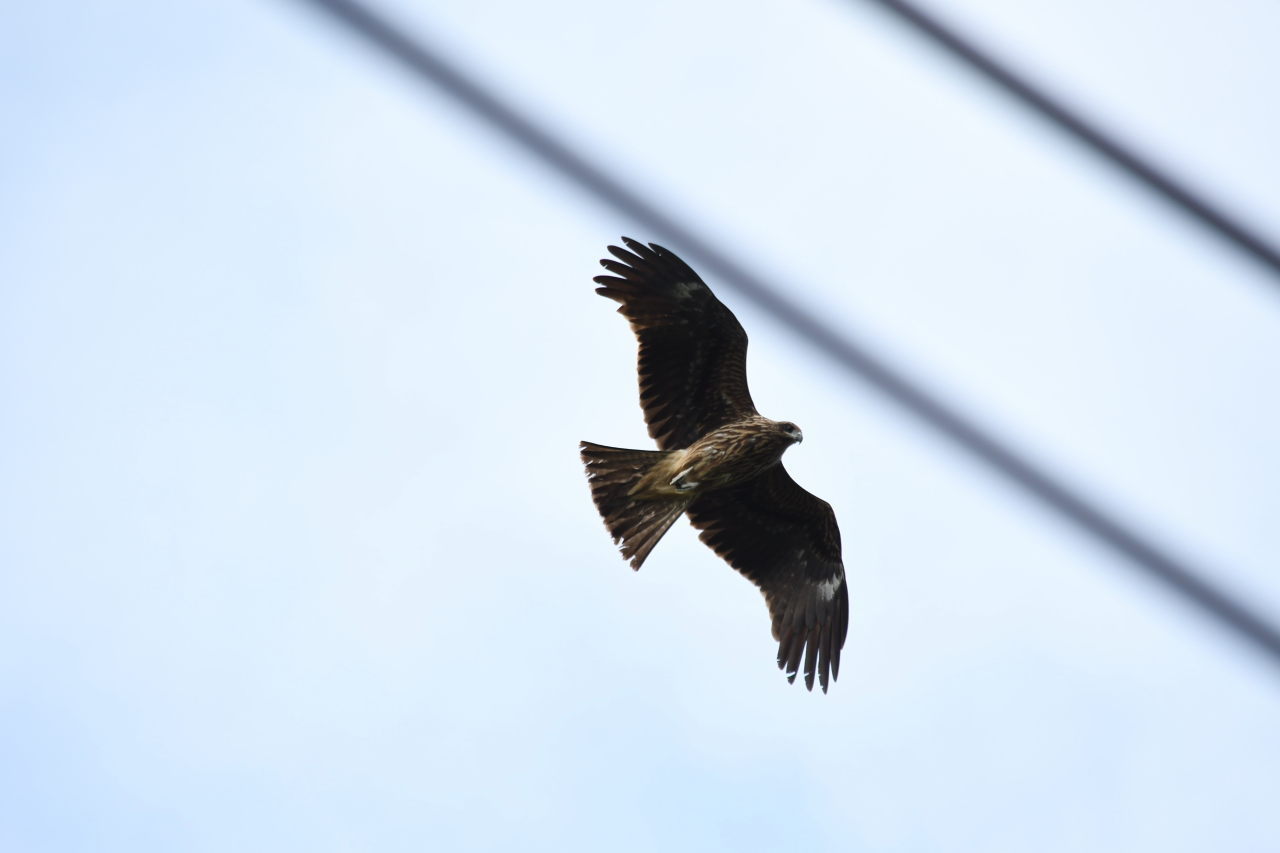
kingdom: Animalia
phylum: Chordata
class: Aves
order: Accipitriformes
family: Accipitridae
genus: Milvus
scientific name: Milvus migrans
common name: Black kite
